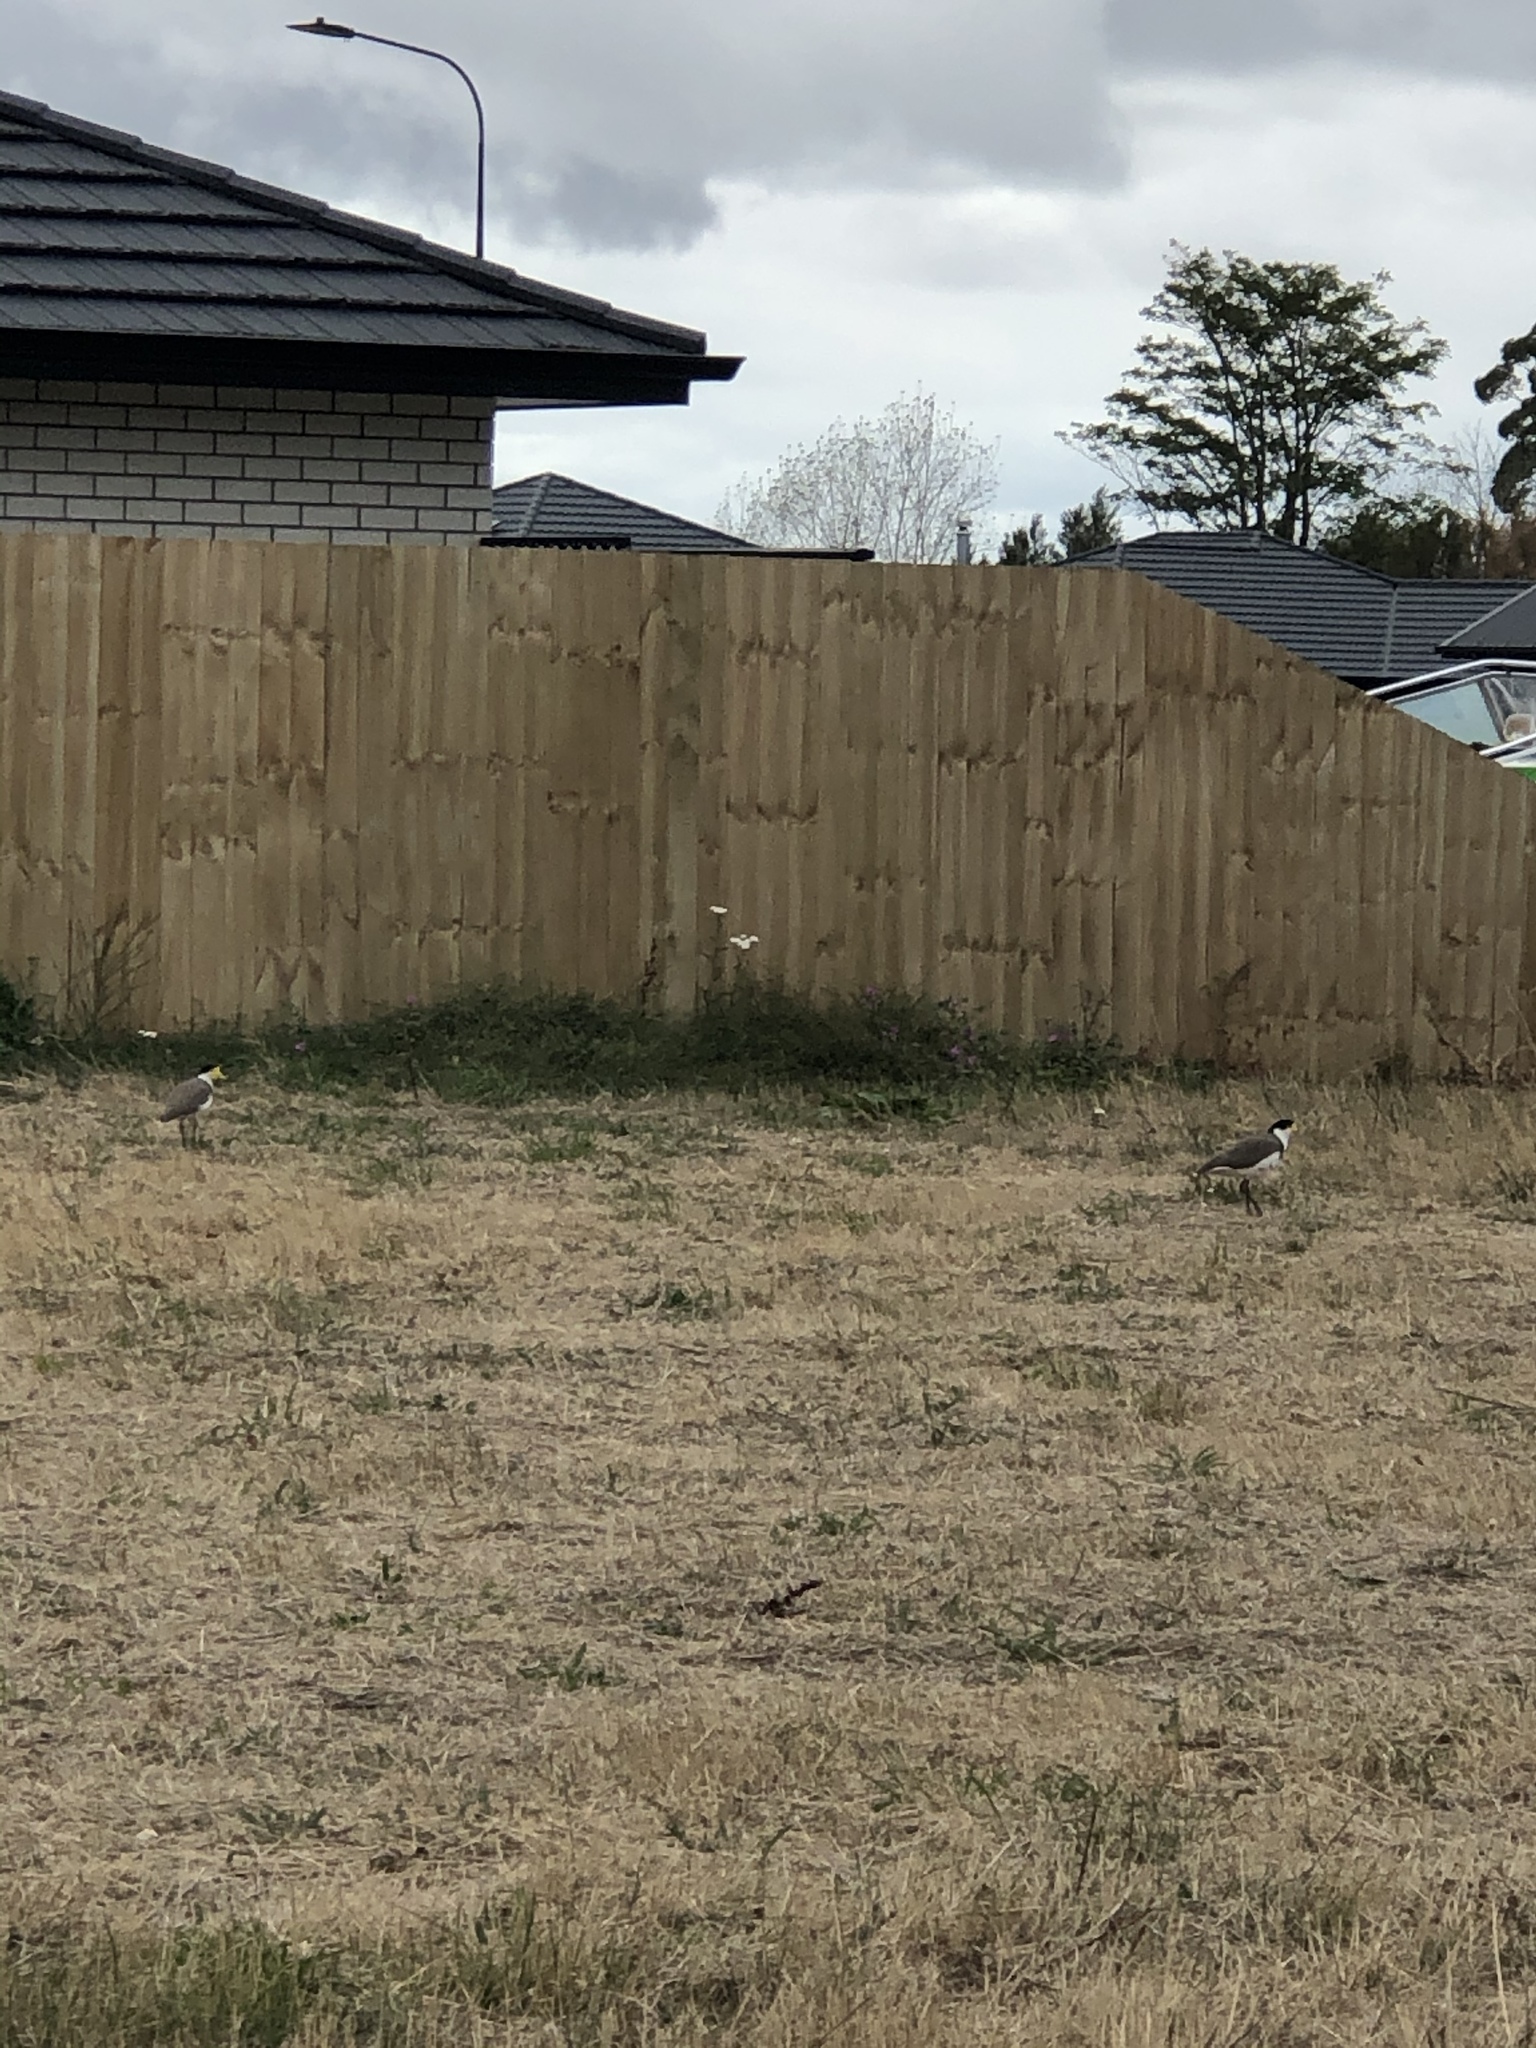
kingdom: Animalia
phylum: Chordata
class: Aves
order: Charadriiformes
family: Charadriidae
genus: Vanellus
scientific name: Vanellus miles
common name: Masked lapwing
